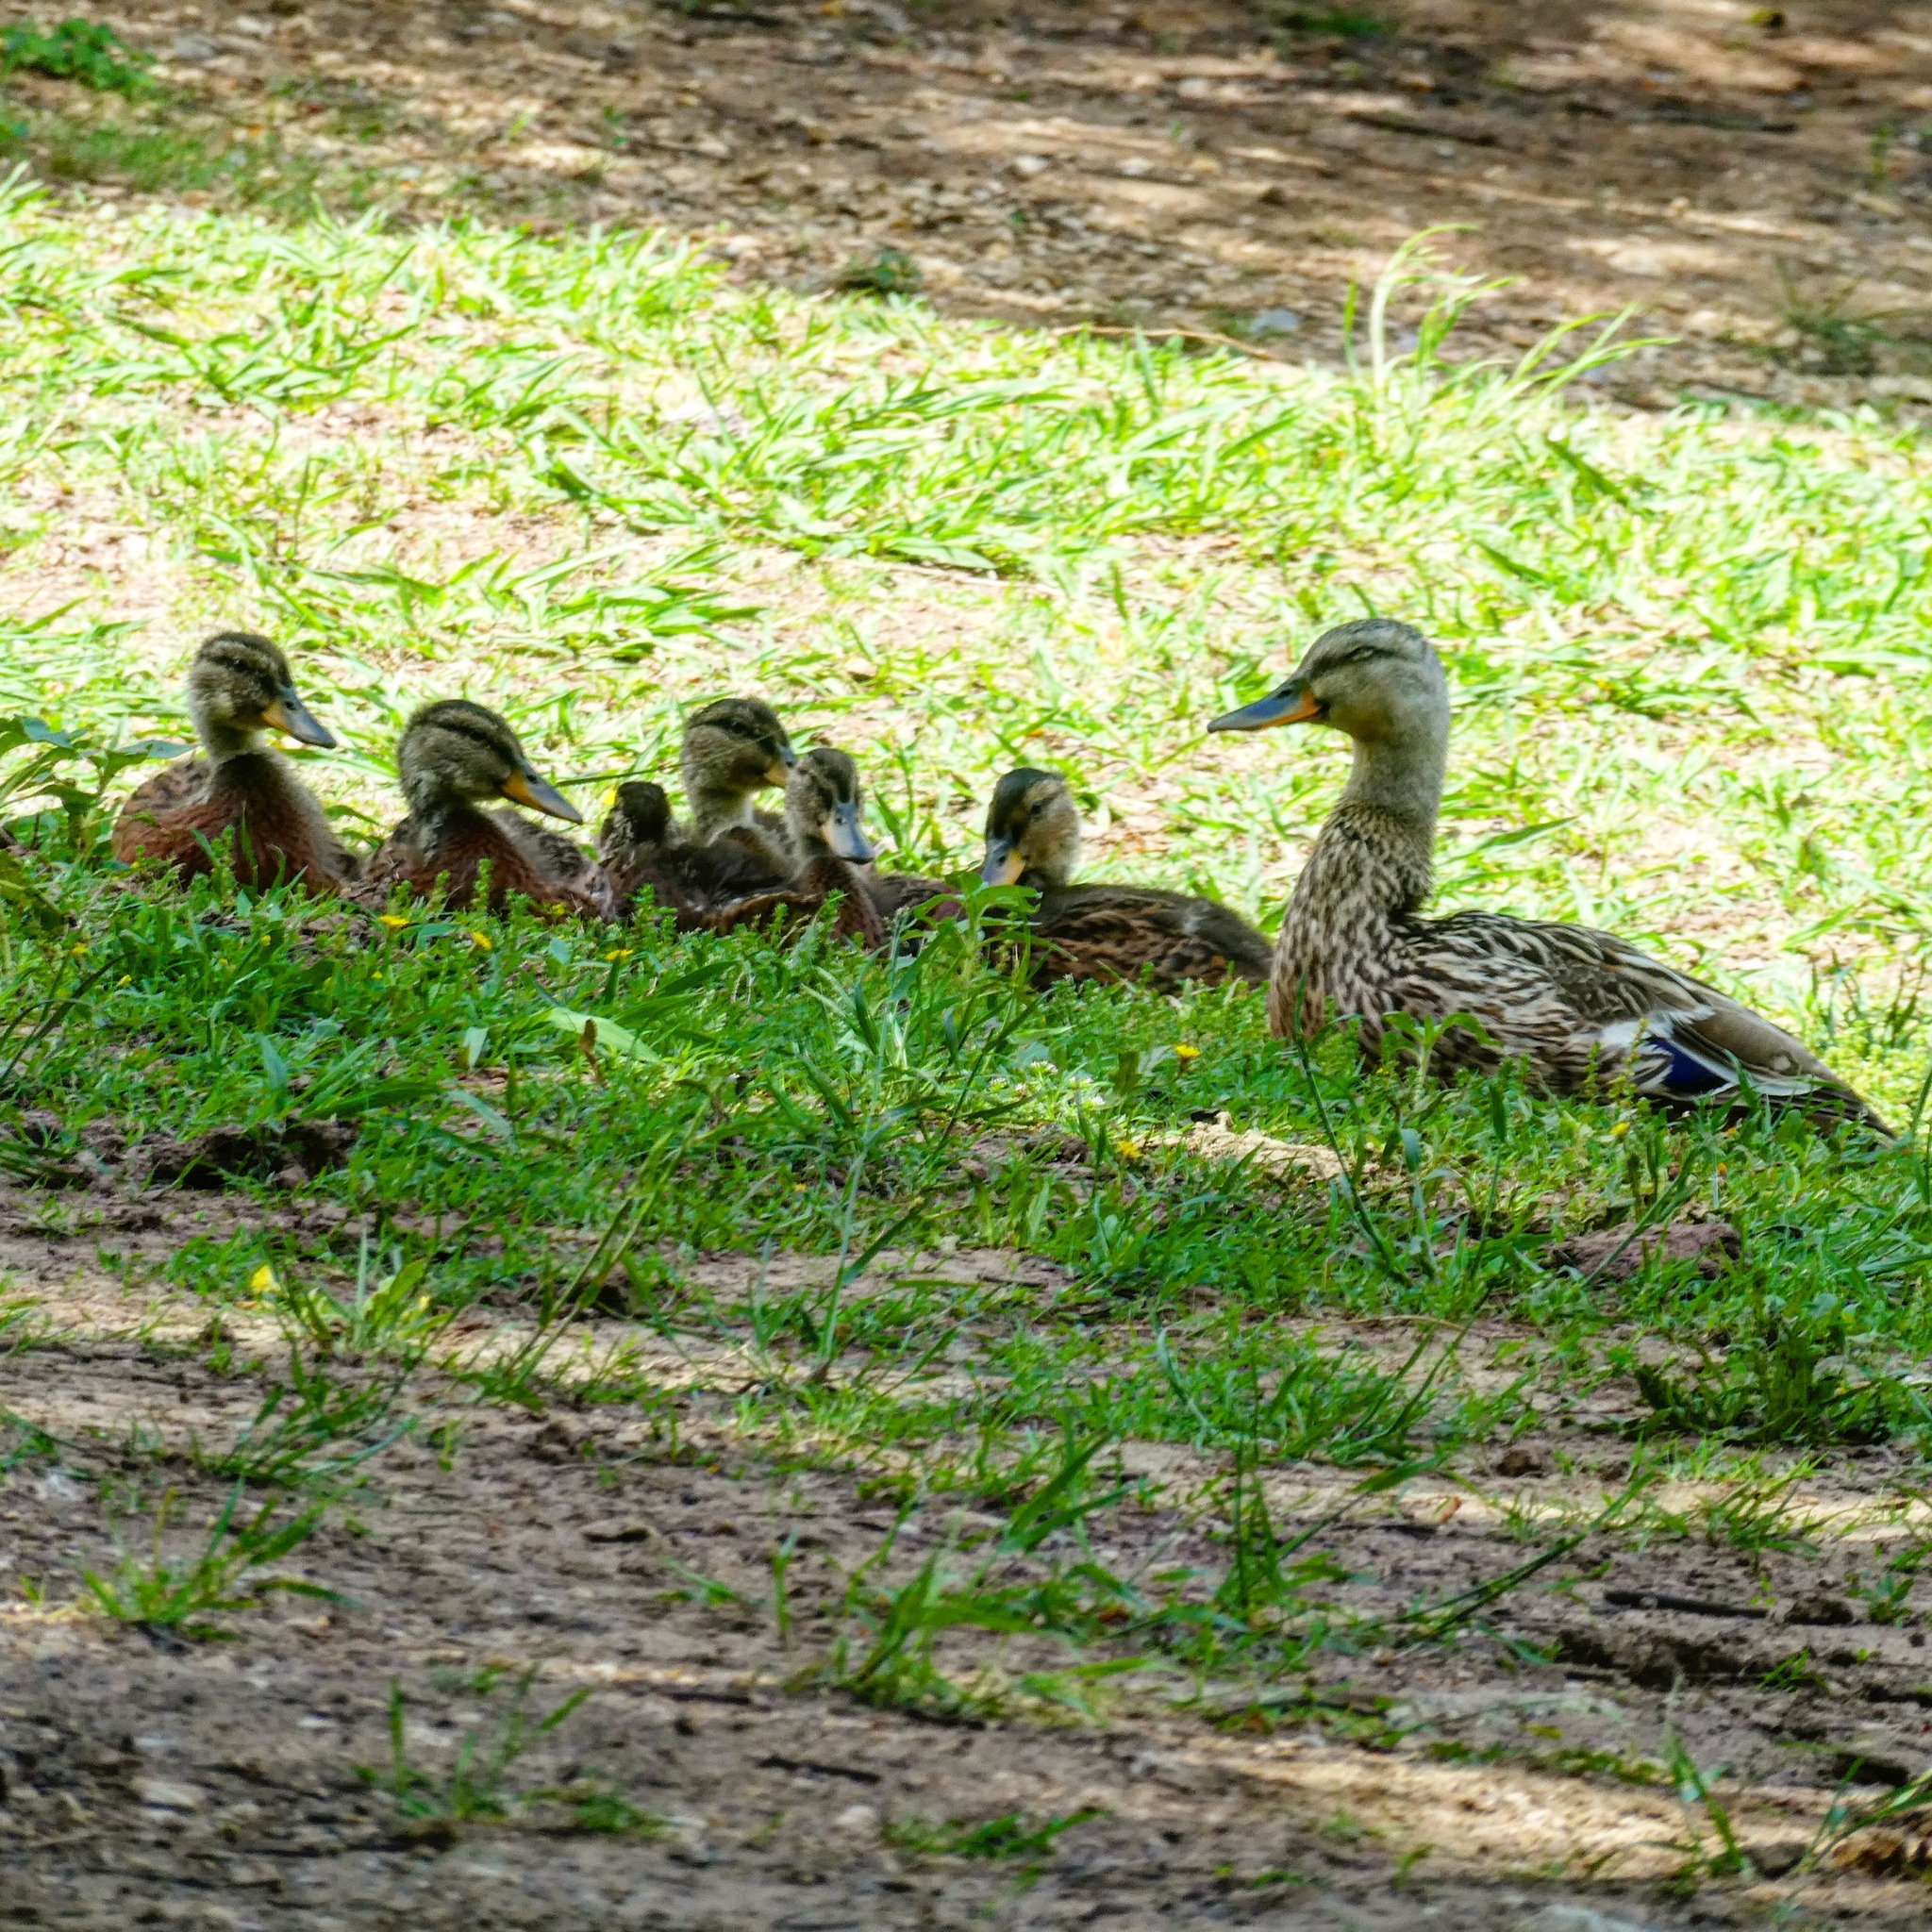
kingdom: Animalia
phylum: Chordata
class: Aves
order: Anseriformes
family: Anatidae
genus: Anas
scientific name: Anas platyrhynchos
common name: Mallard
